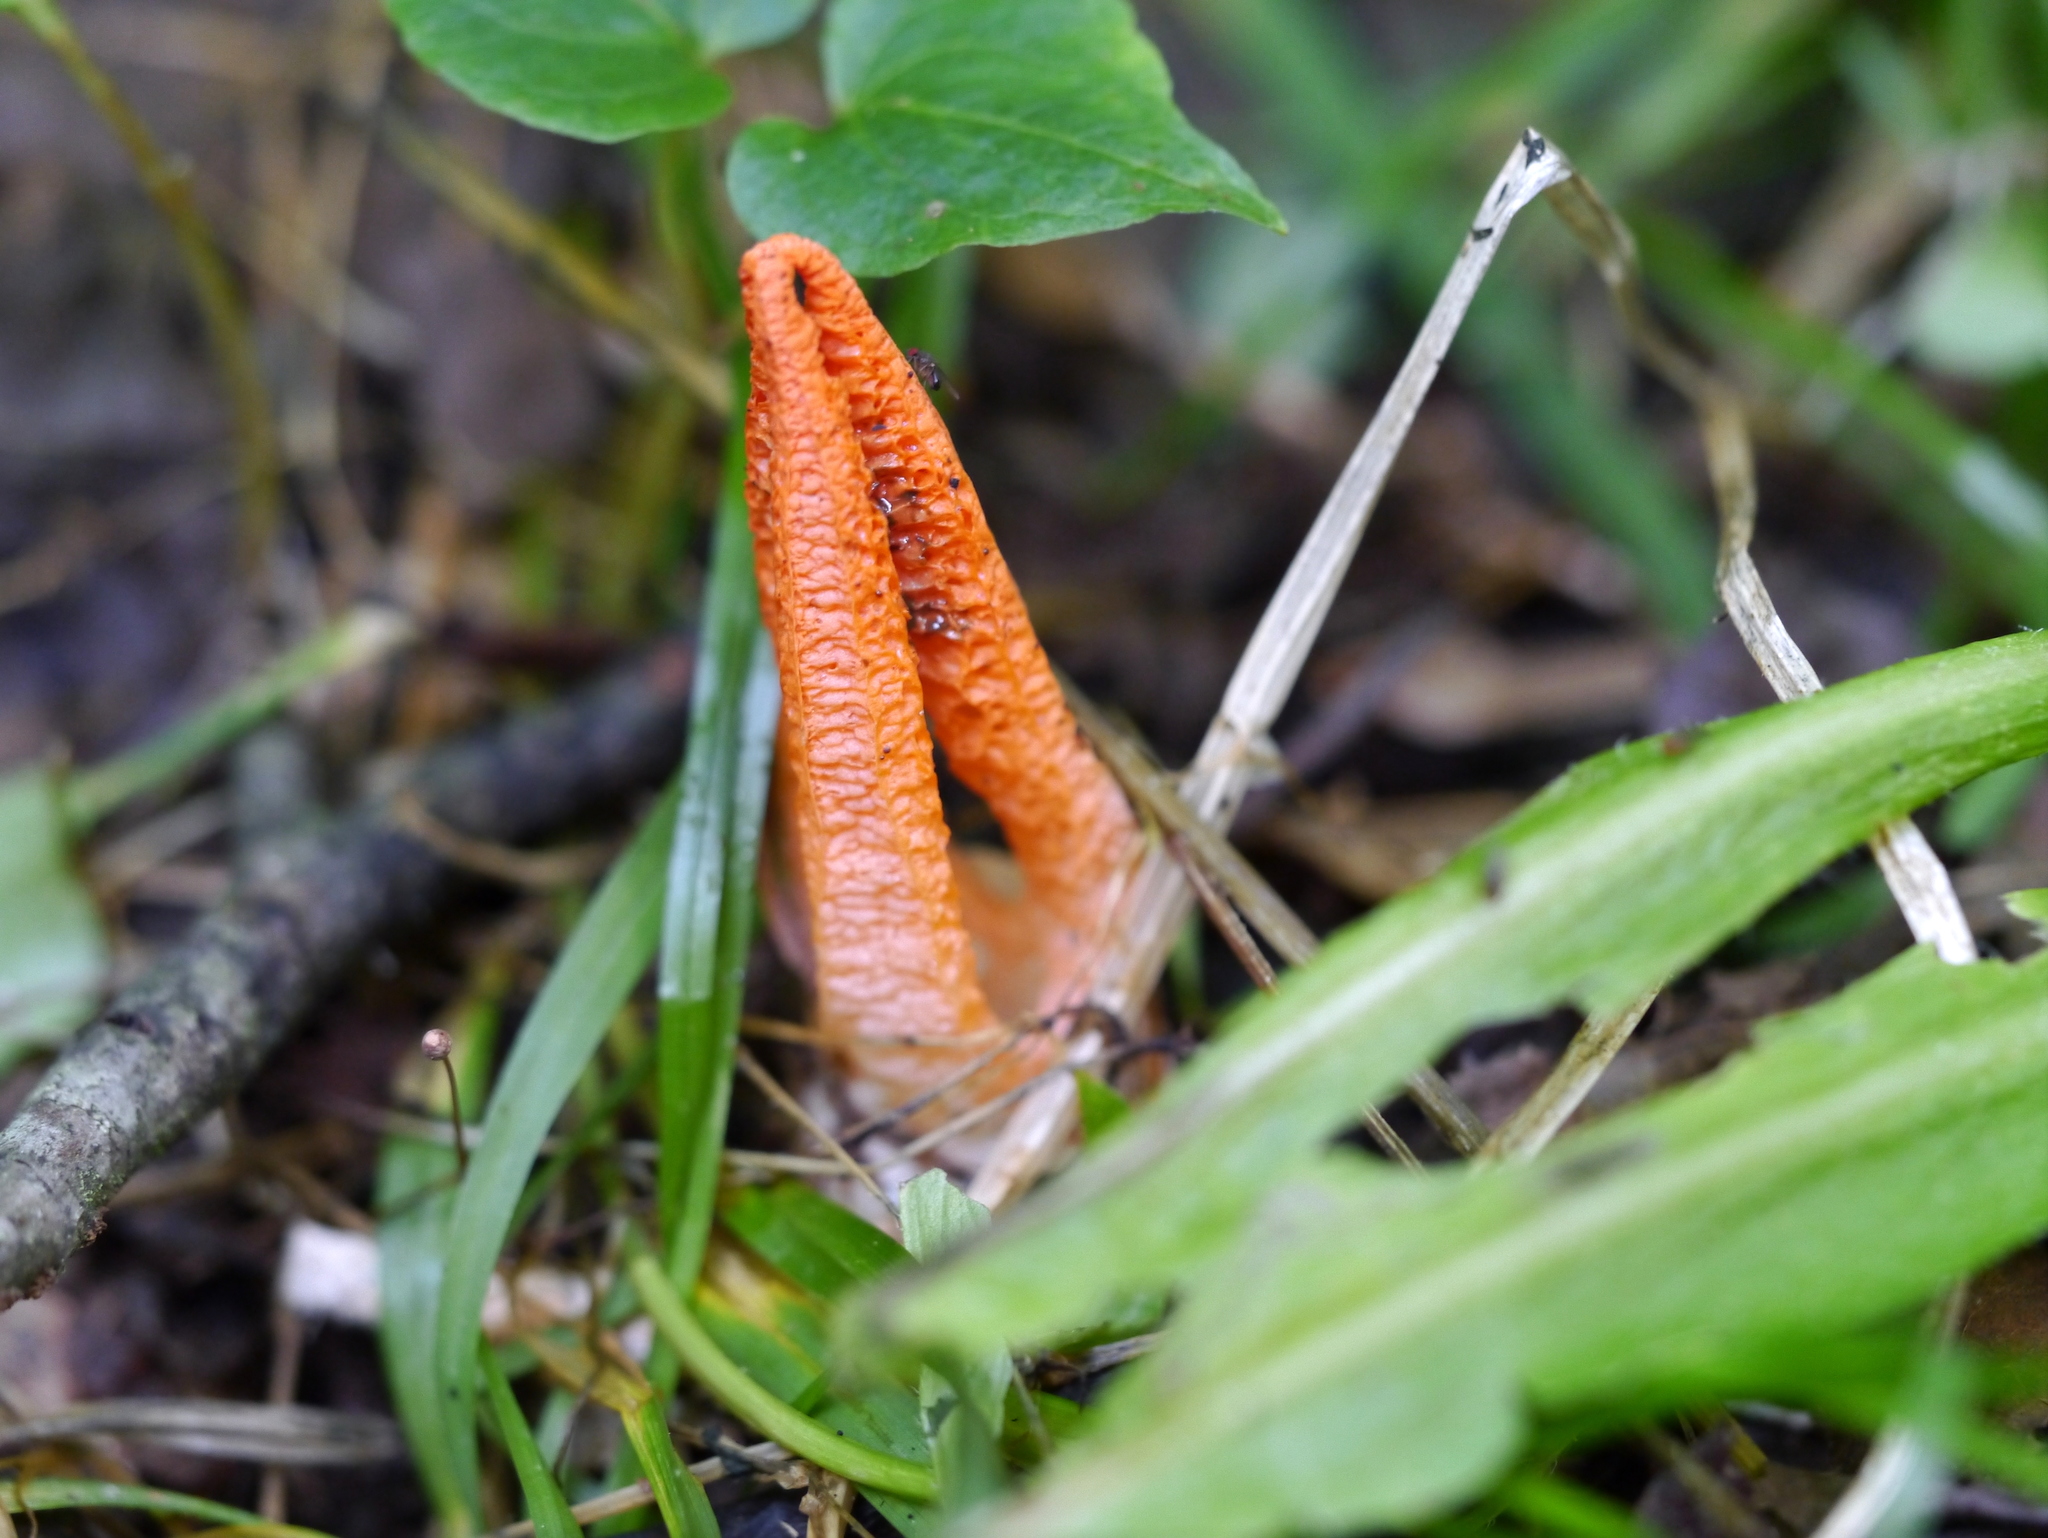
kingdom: Fungi
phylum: Basidiomycota
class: Agaricomycetes
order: Phallales
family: Phallaceae
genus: Pseudocolus
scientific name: Pseudocolus fusiformis
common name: Stinky squid
